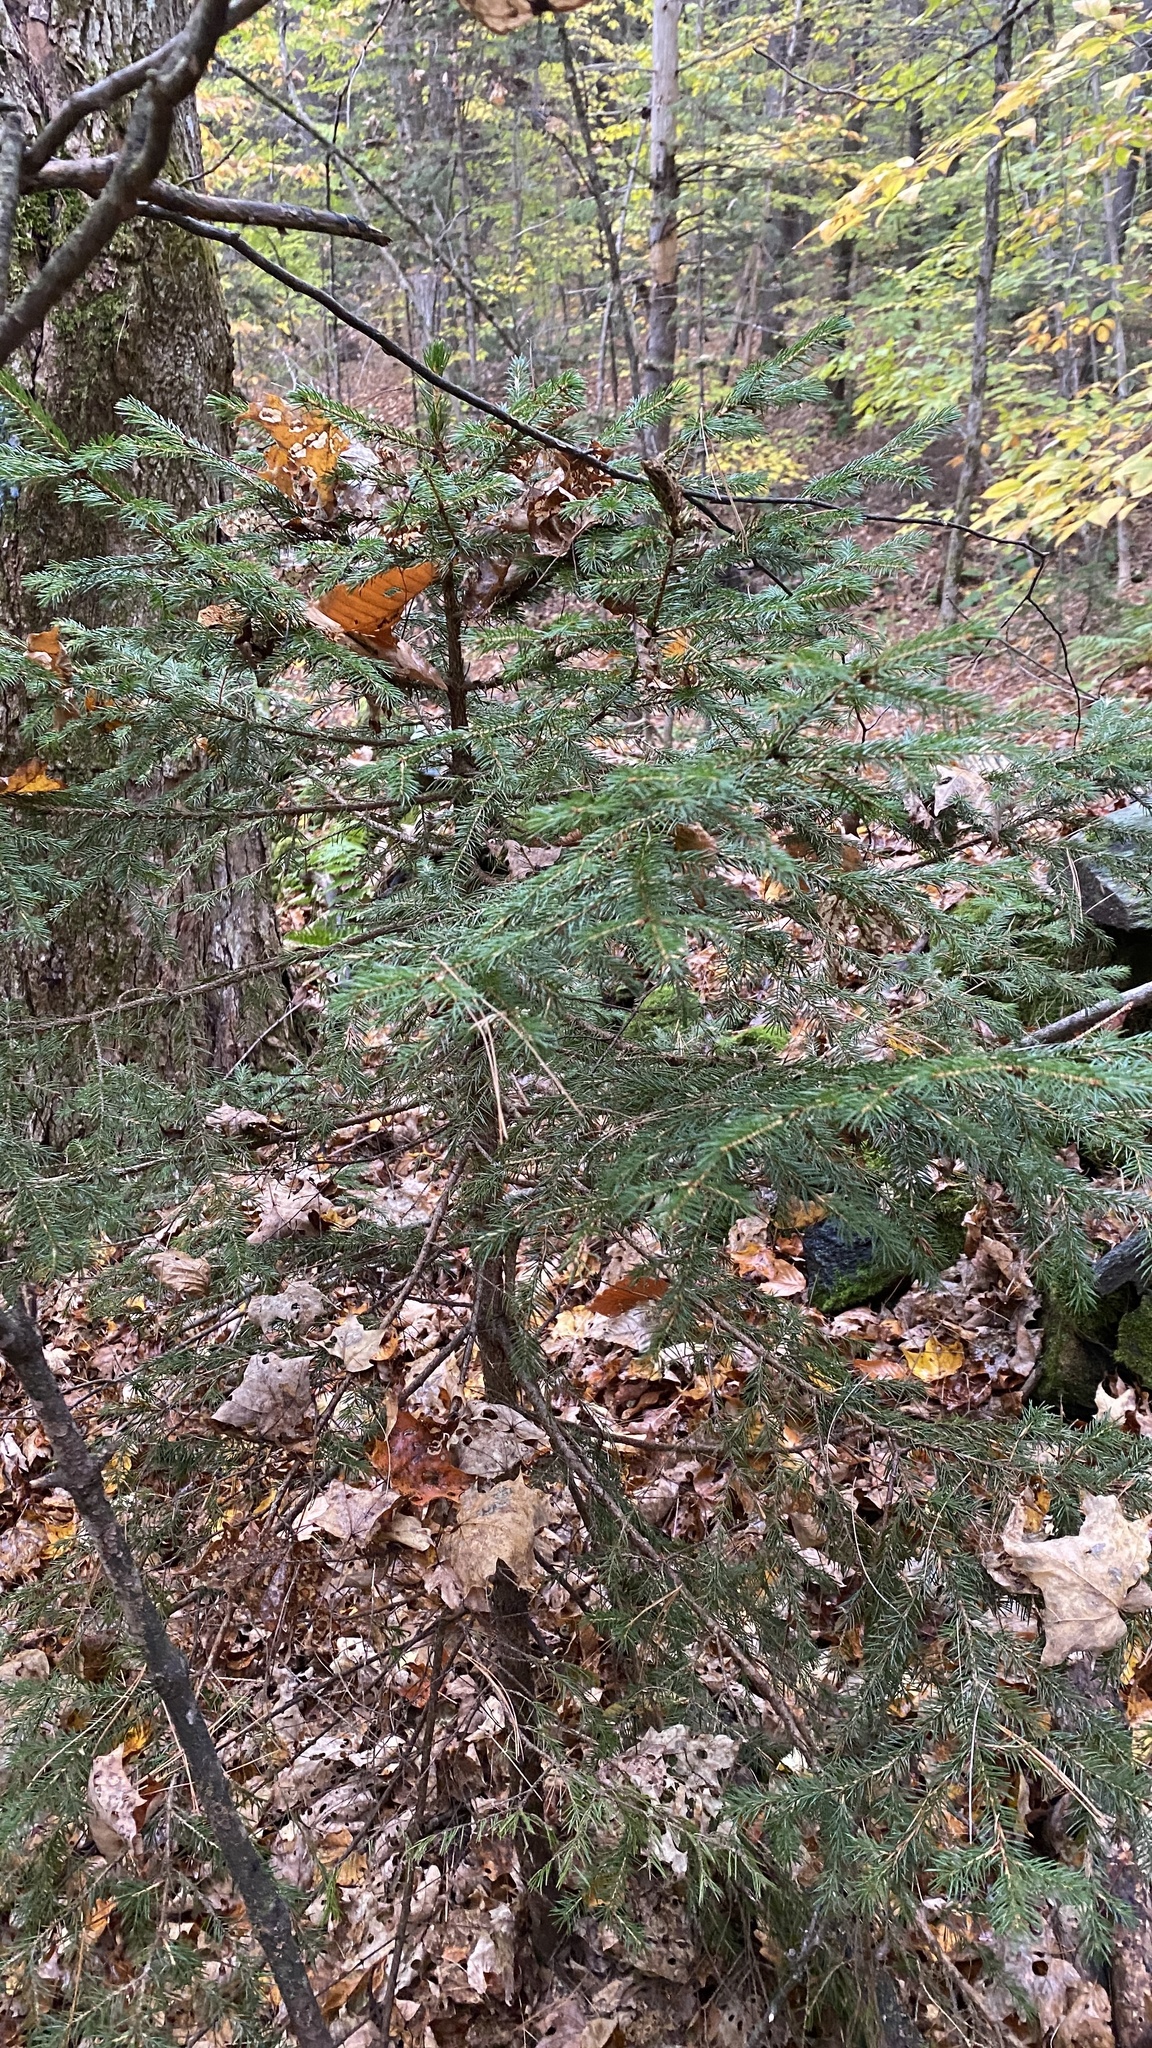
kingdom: Plantae
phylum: Tracheophyta
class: Pinopsida
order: Pinales
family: Pinaceae
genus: Picea
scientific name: Picea rubens
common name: Red spruce
